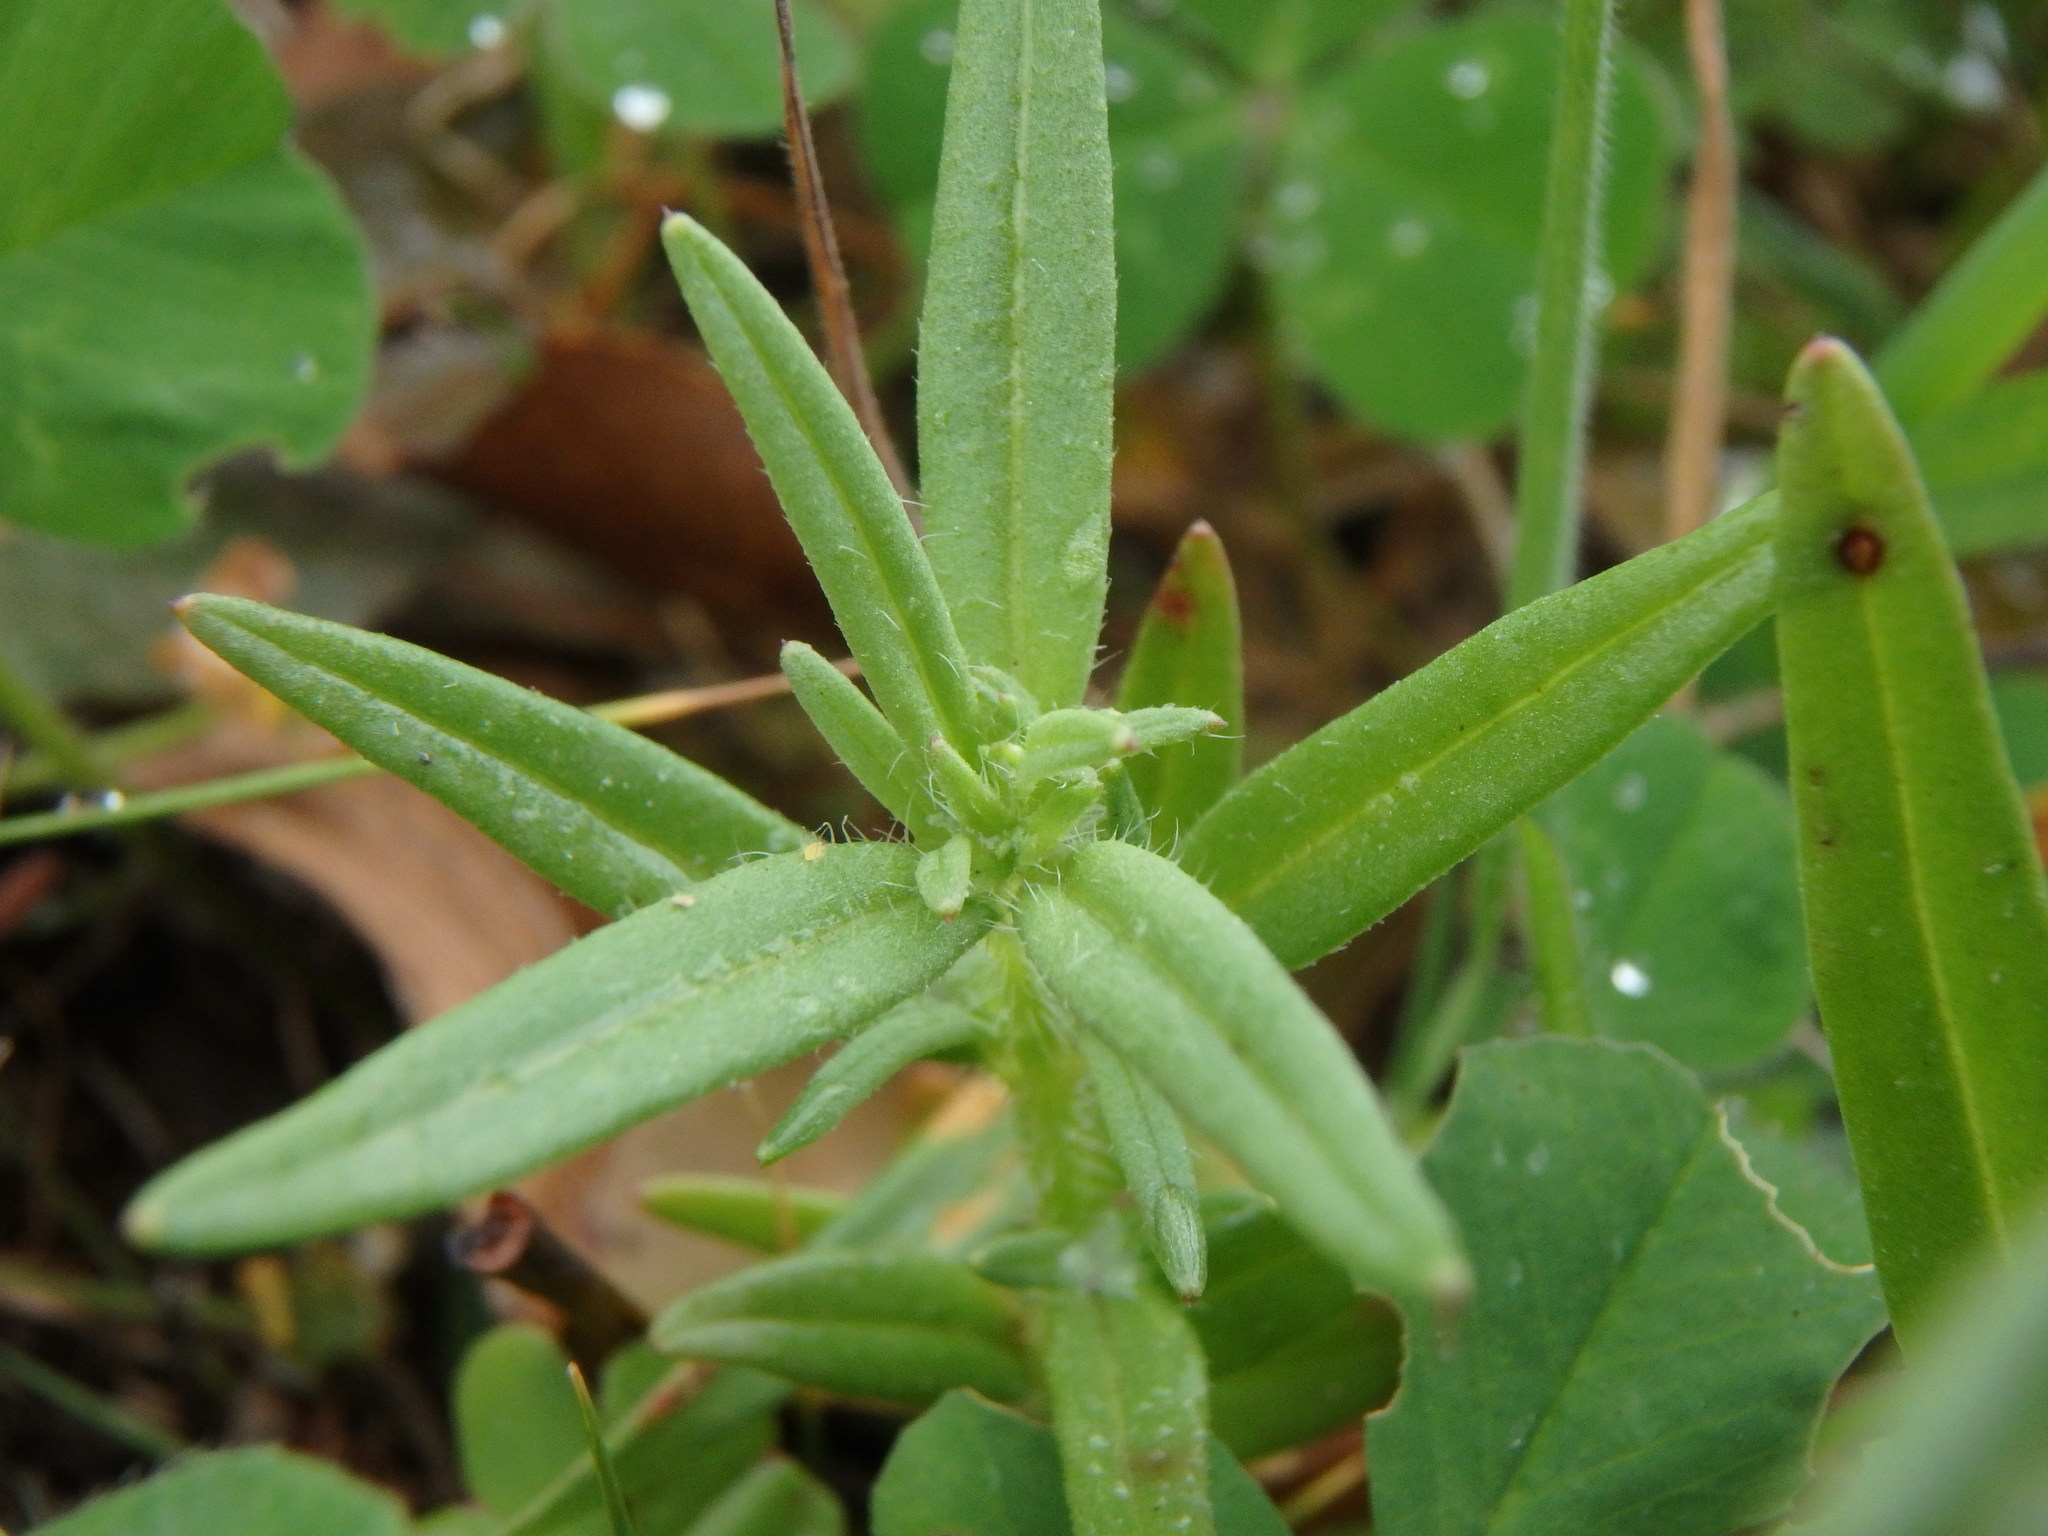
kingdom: Plantae
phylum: Tracheophyta
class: Magnoliopsida
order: Lamiales
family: Plantaginaceae
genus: Misopates
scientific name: Misopates orontium
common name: Weasel's-snout
